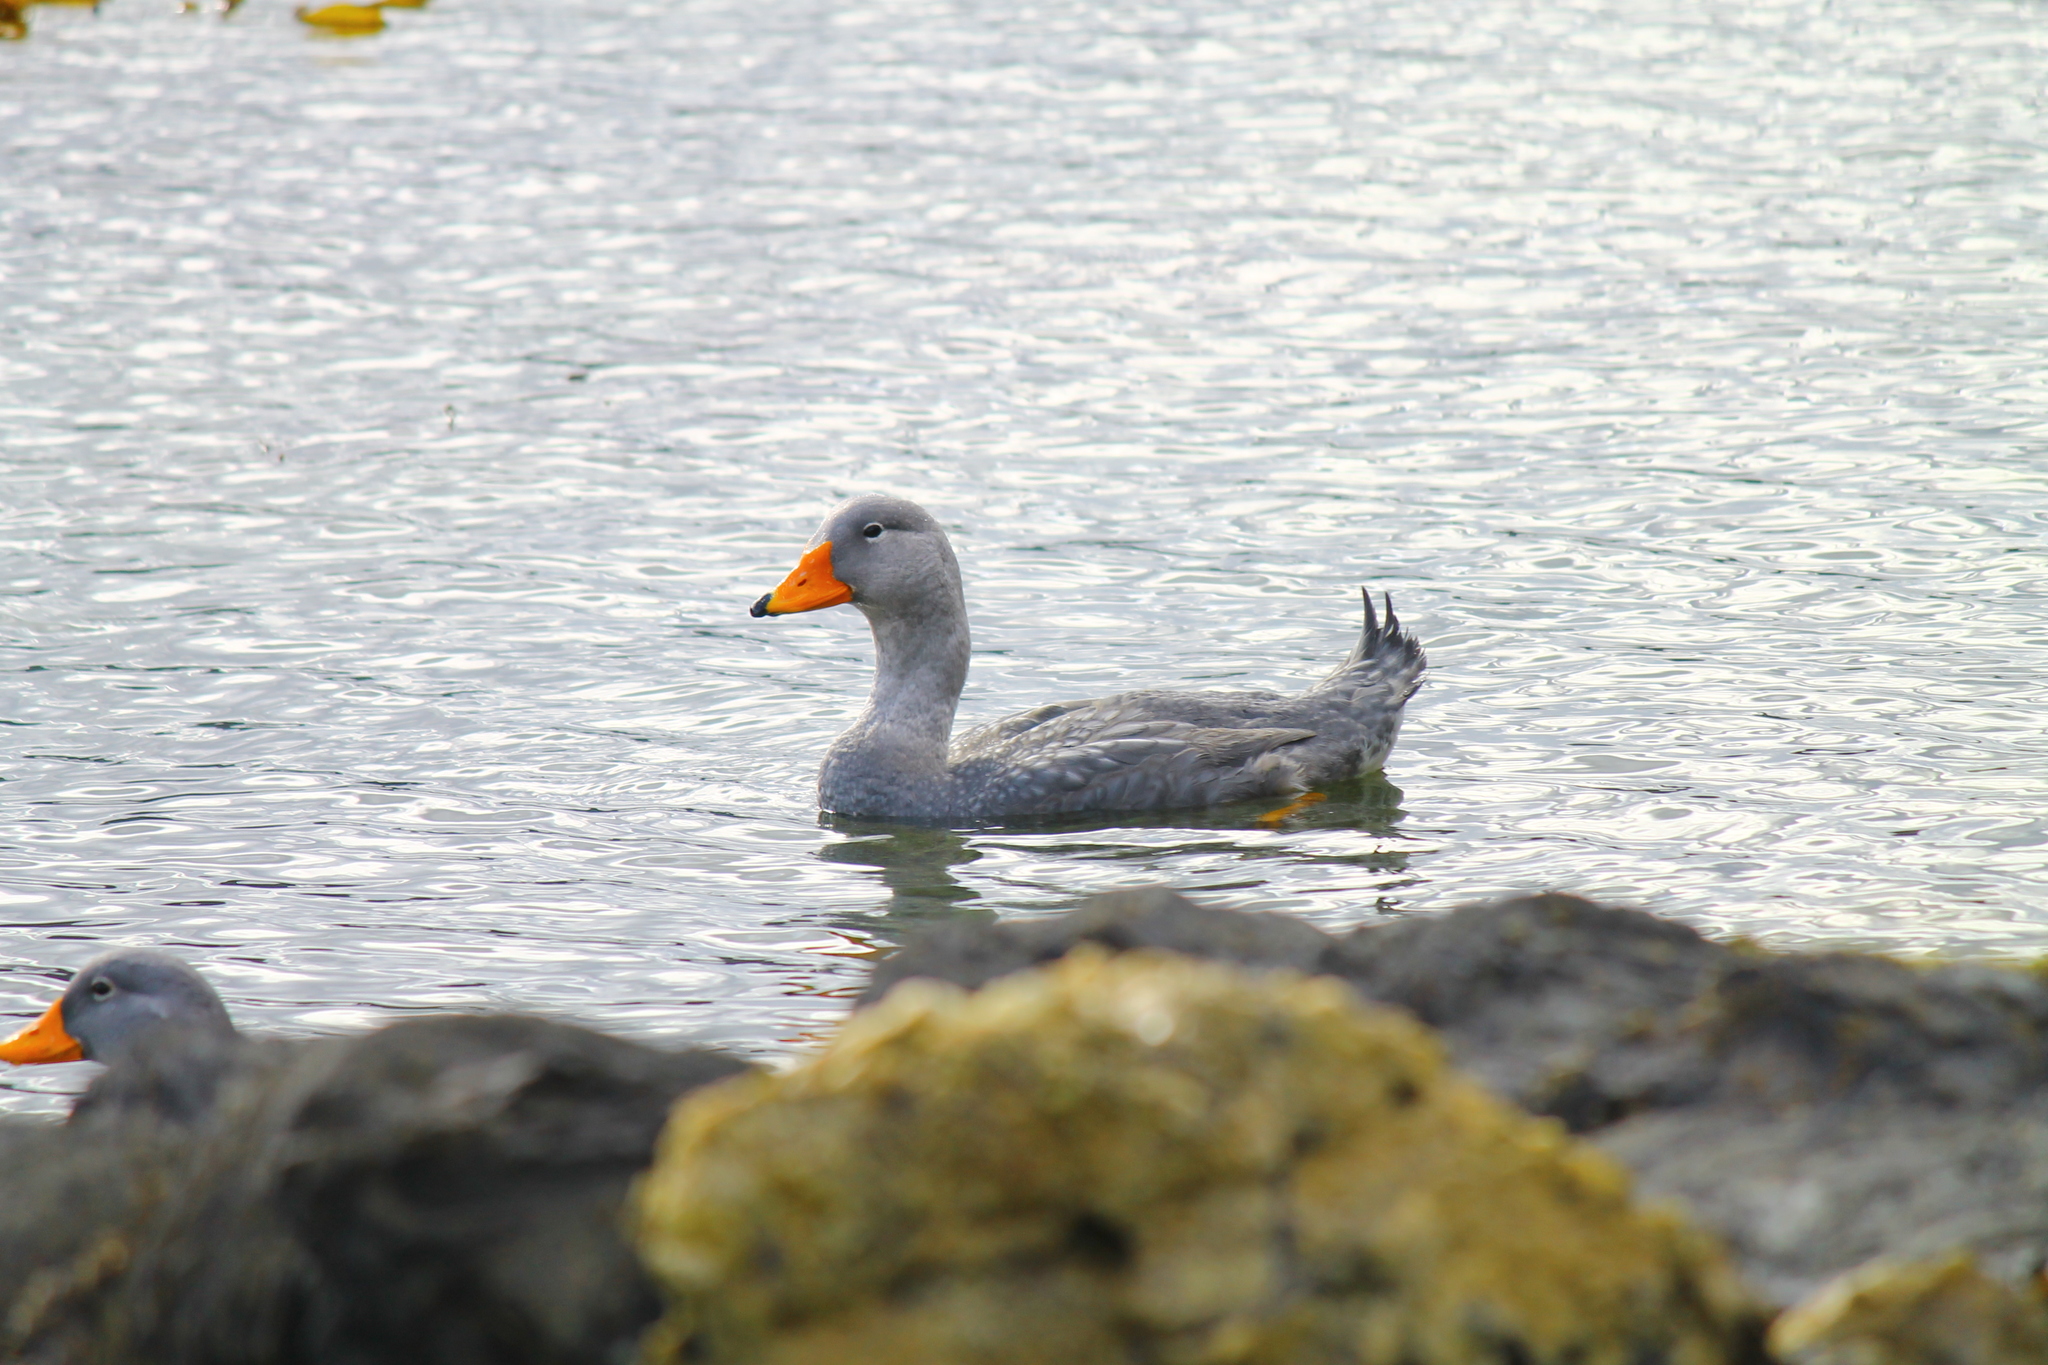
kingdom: Animalia
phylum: Chordata
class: Aves
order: Anseriformes
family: Anatidae
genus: Tachyeres
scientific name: Tachyeres pteneres
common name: Fuegian steamer duck
